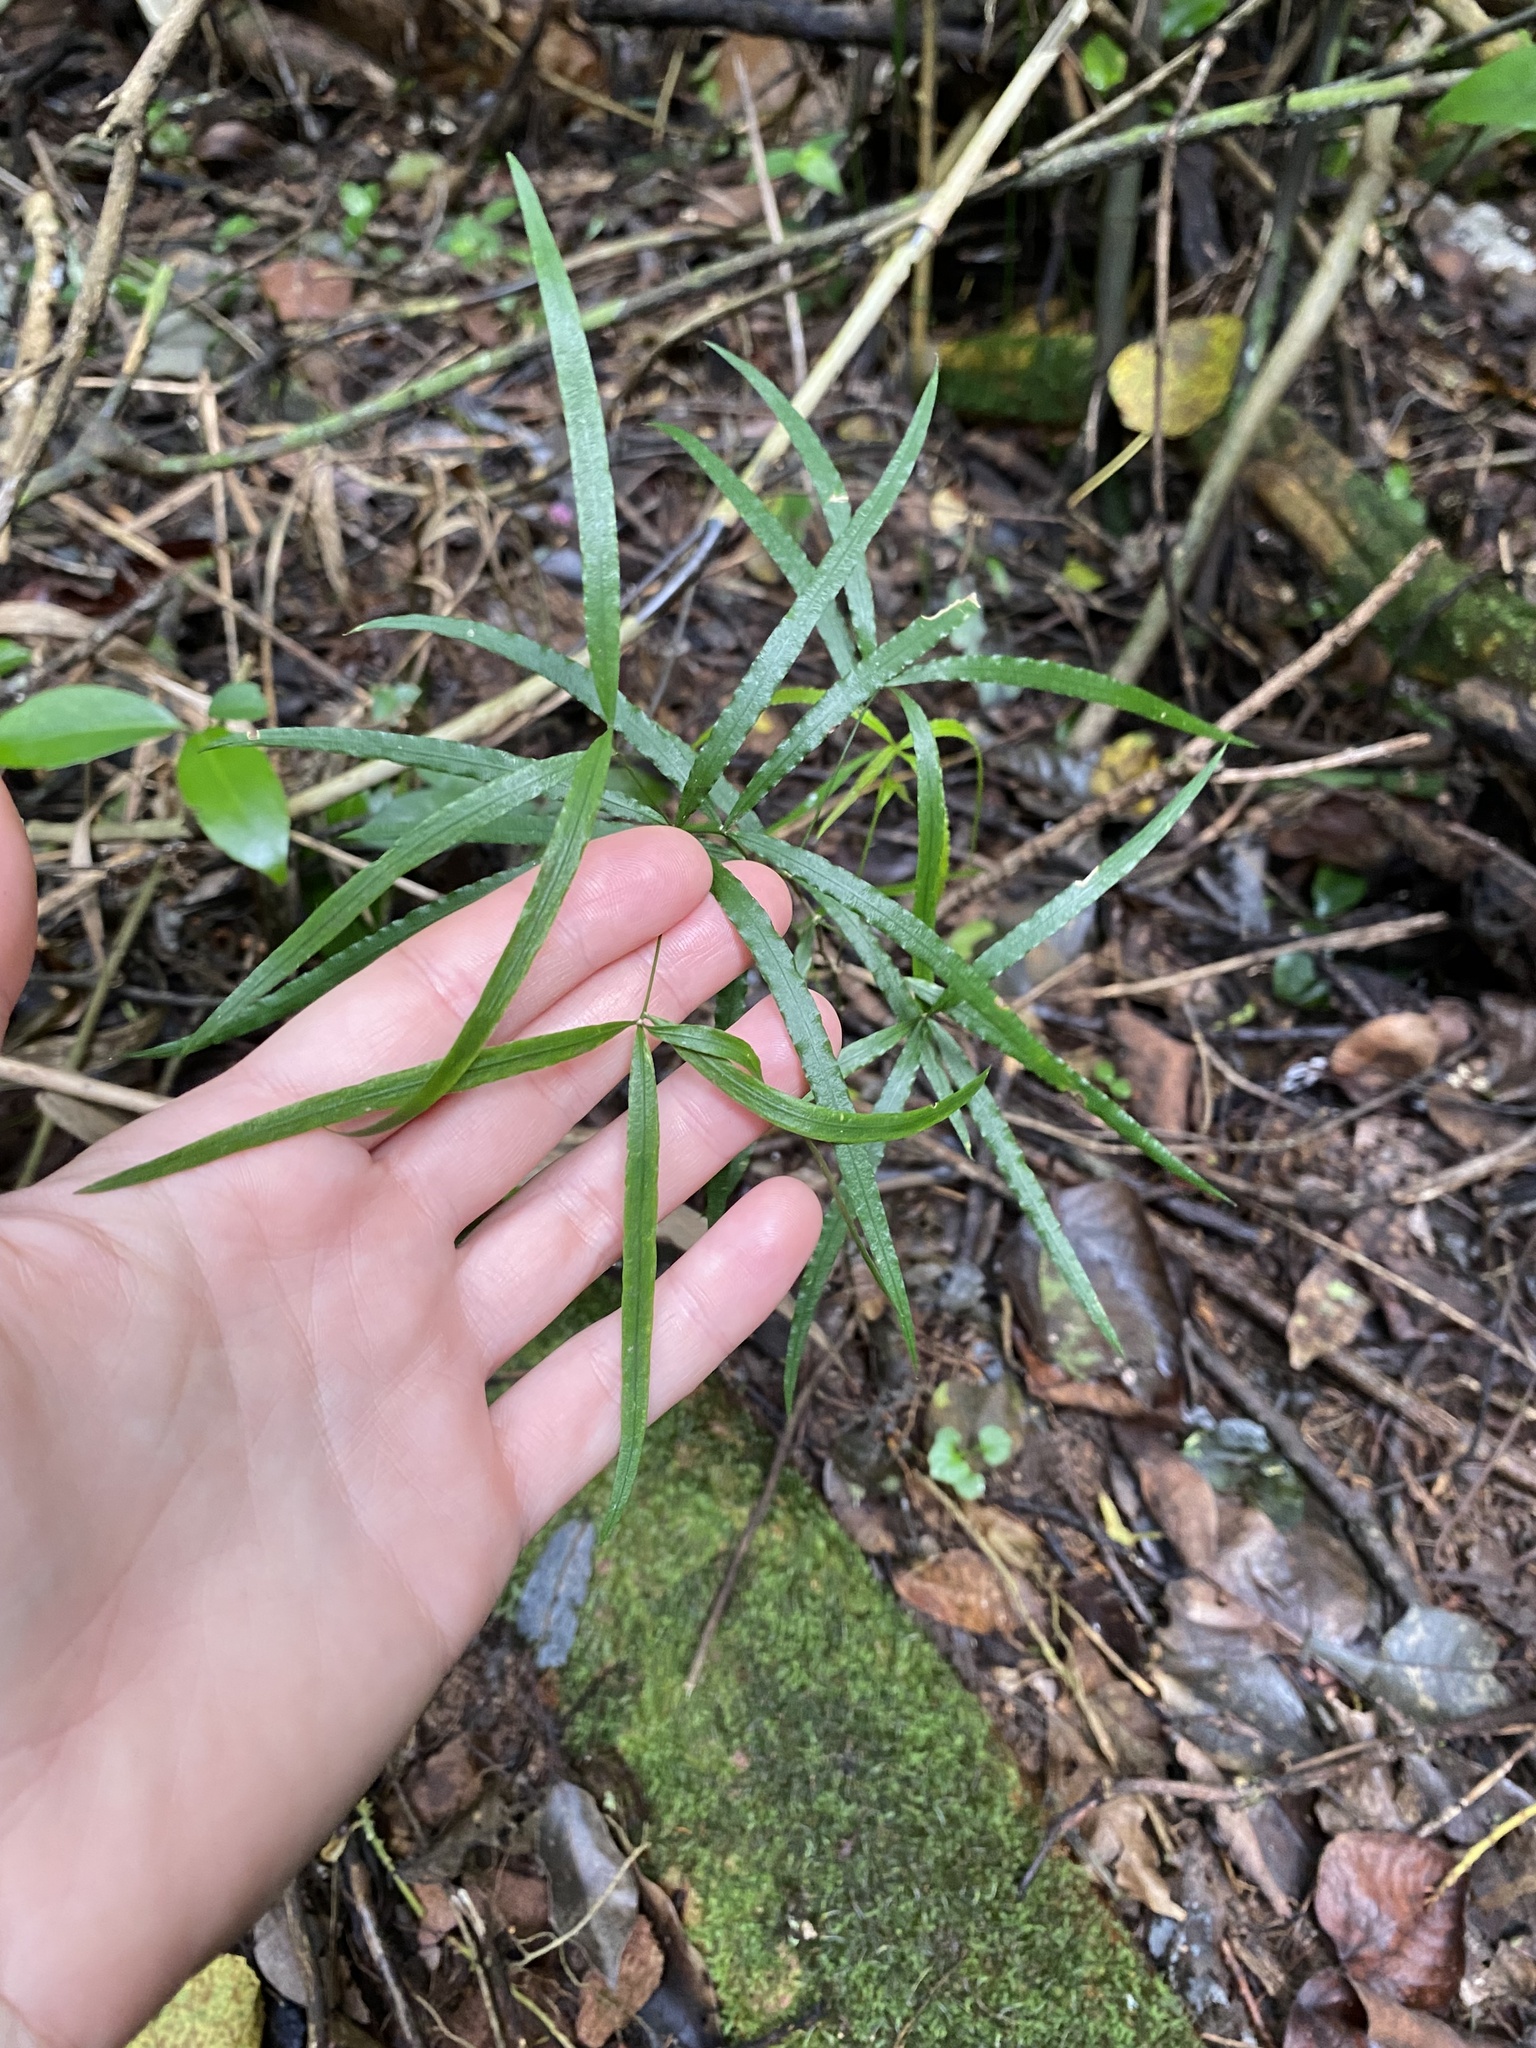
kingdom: Plantae
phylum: Tracheophyta
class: Liliopsida
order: Asparagales
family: Asparagaceae
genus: Asparagus
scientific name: Asparagus falcatus
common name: Asparagus
